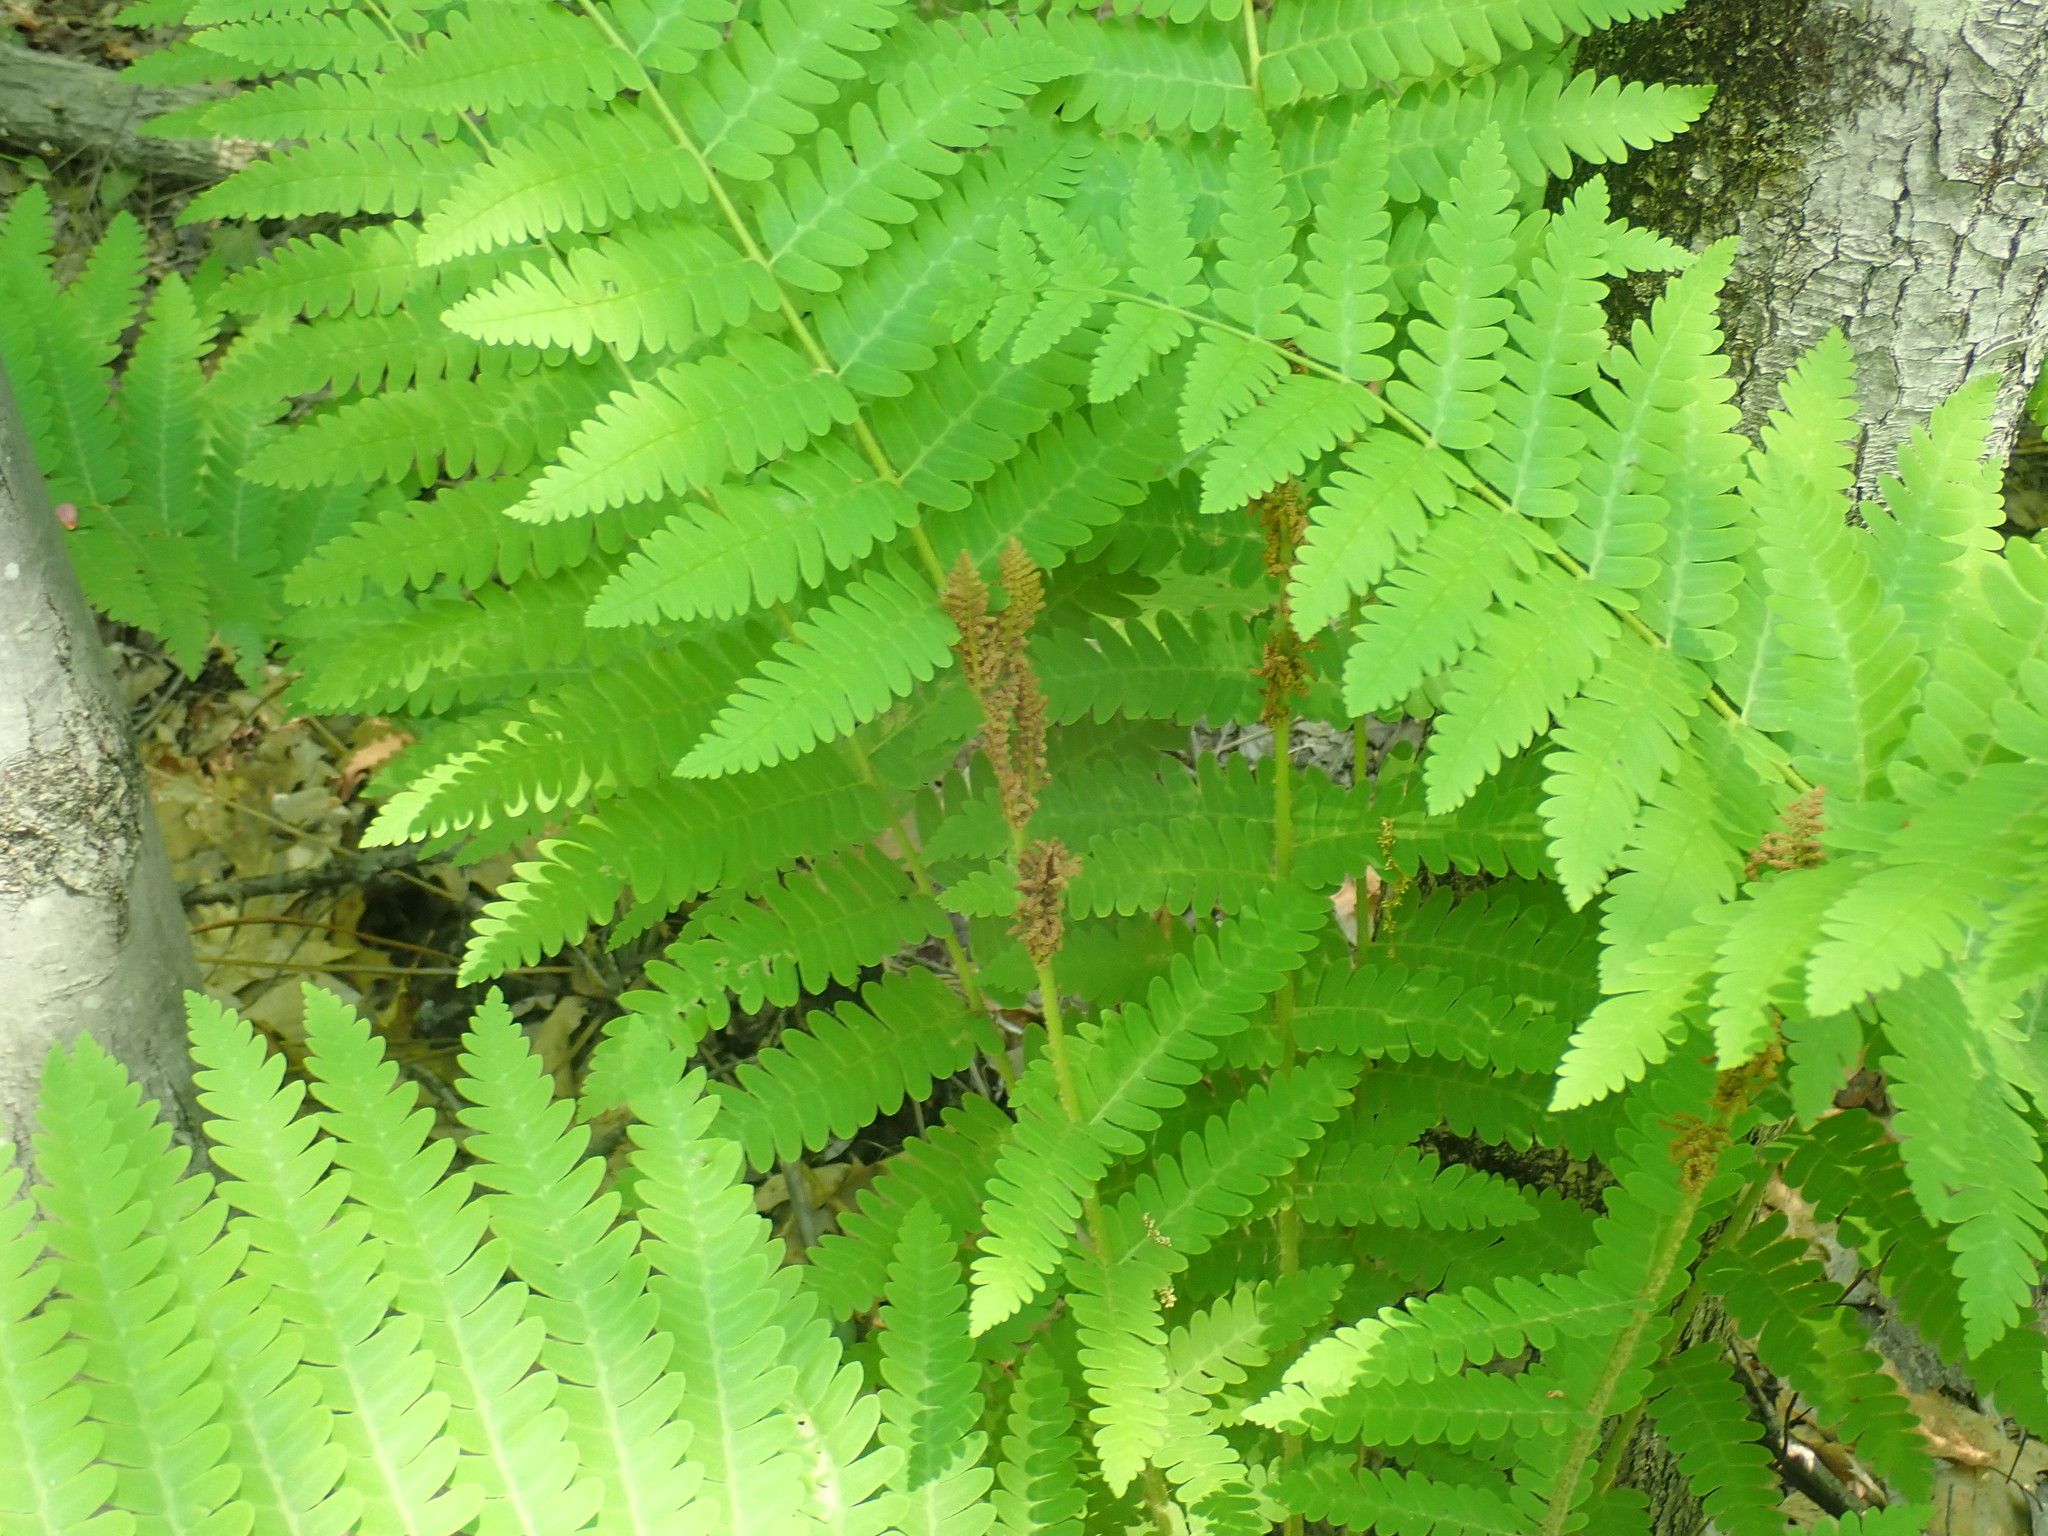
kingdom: Plantae
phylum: Tracheophyta
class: Polypodiopsida
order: Osmundales
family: Osmundaceae
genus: Claytosmunda
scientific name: Claytosmunda claytoniana
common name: Clayton's fern
